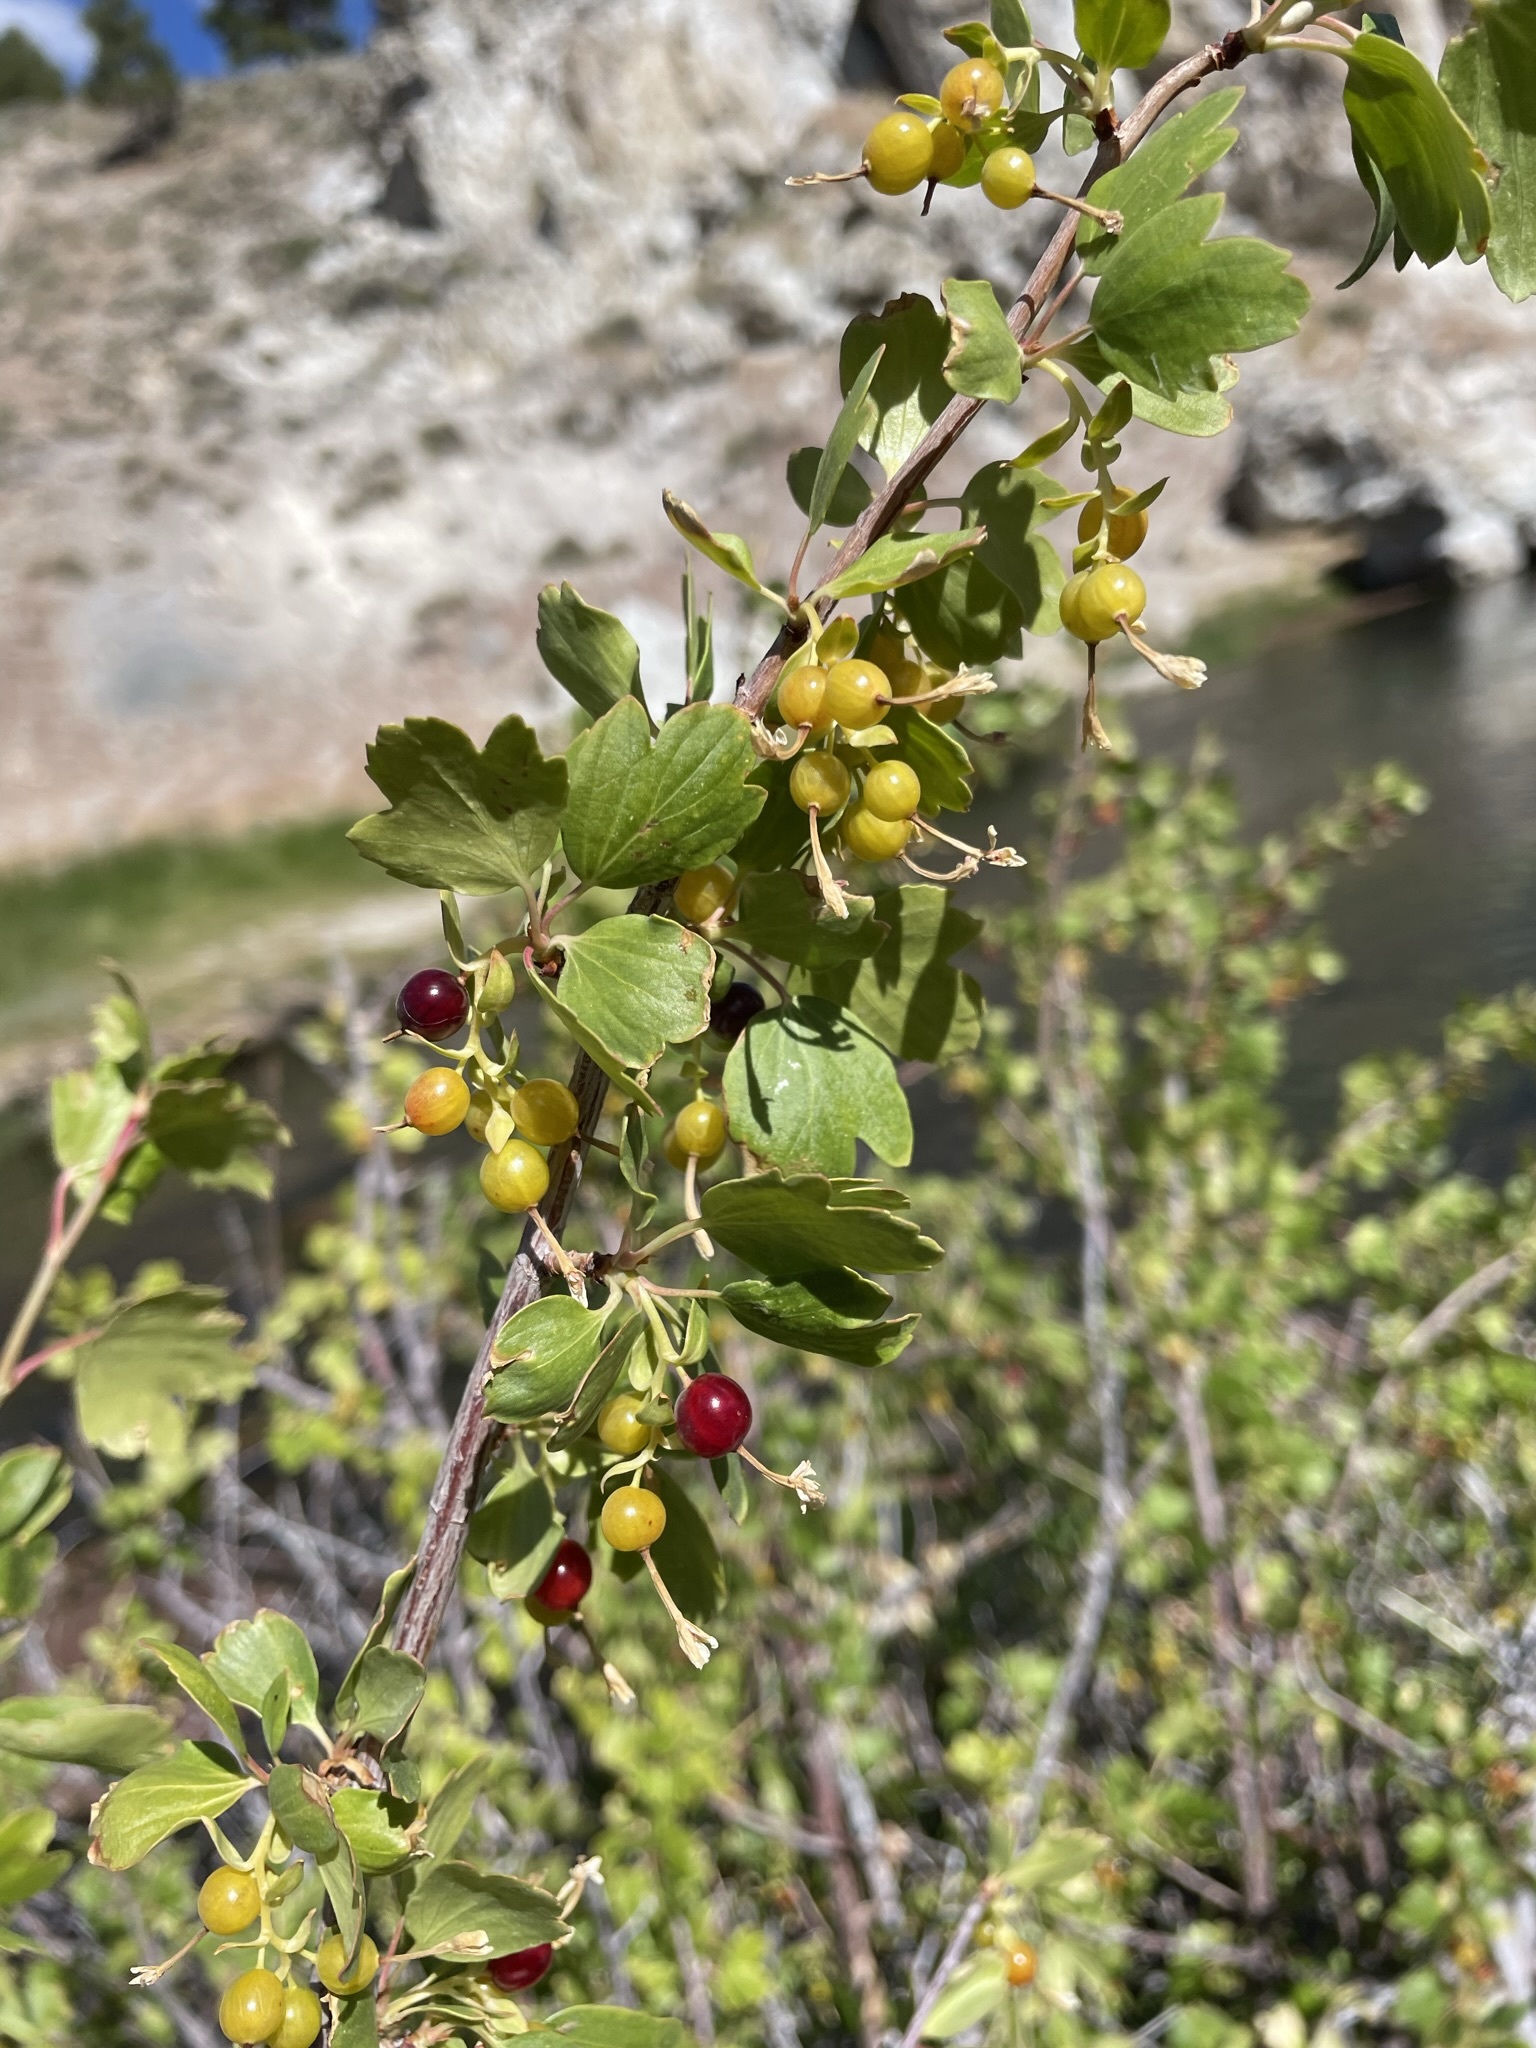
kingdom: Plantae
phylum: Tracheophyta
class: Magnoliopsida
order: Saxifragales
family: Grossulariaceae
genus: Ribes
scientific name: Ribes aureum
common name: Golden currant
